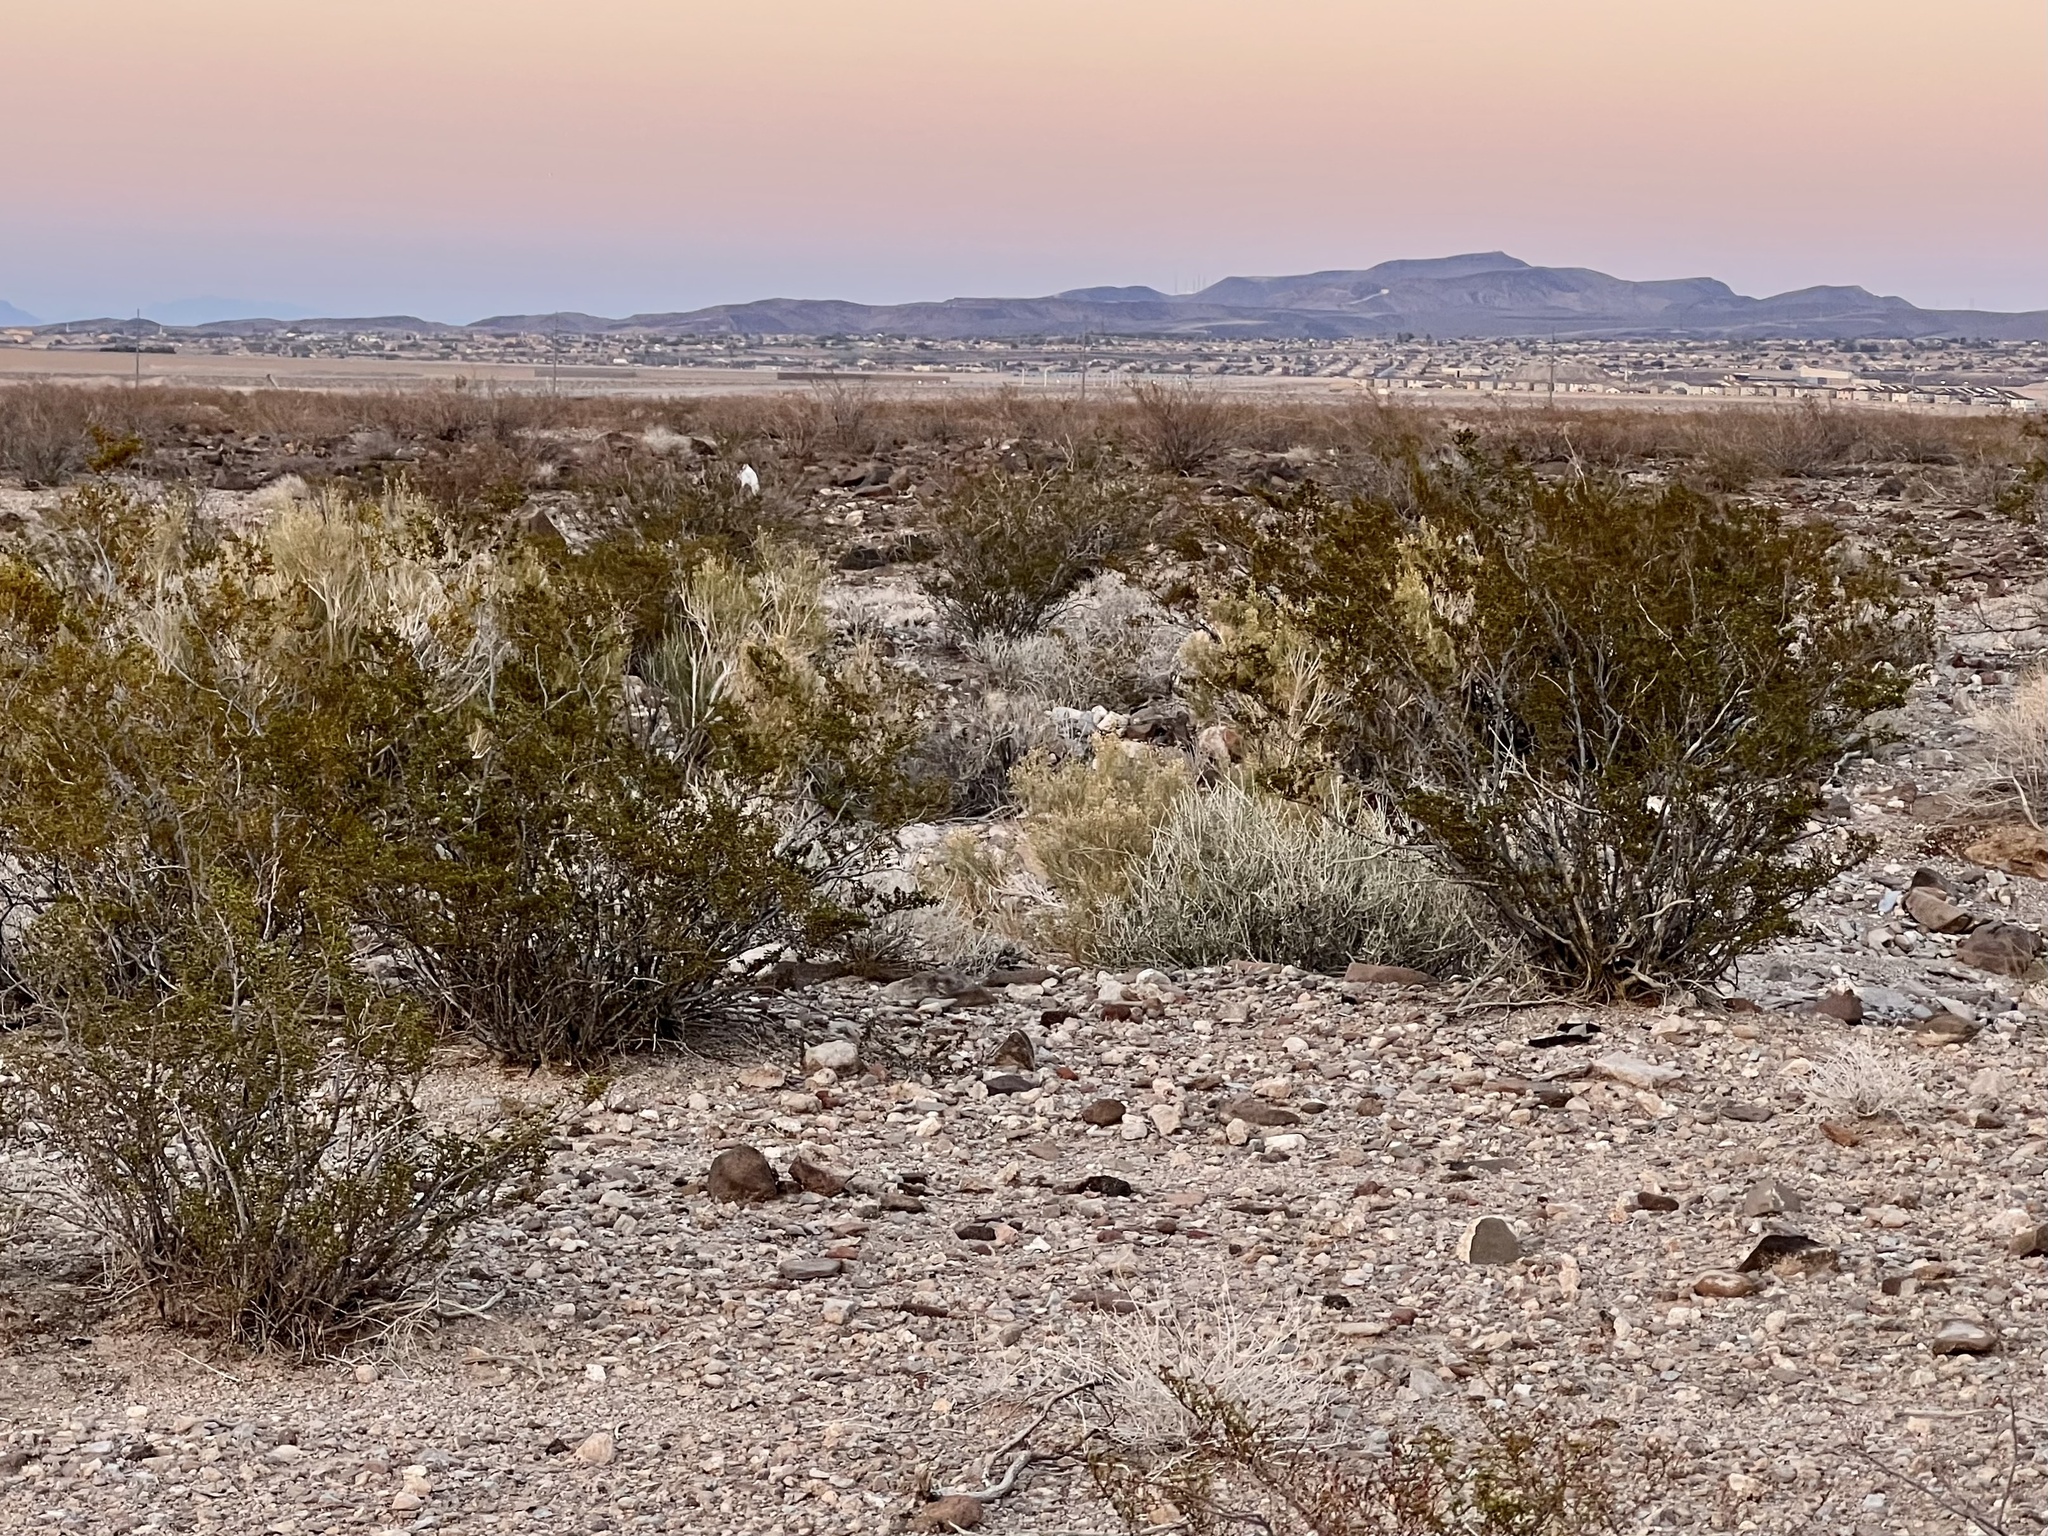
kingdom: Plantae
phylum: Tracheophyta
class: Magnoliopsida
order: Zygophyllales
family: Zygophyllaceae
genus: Larrea
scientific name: Larrea tridentata
